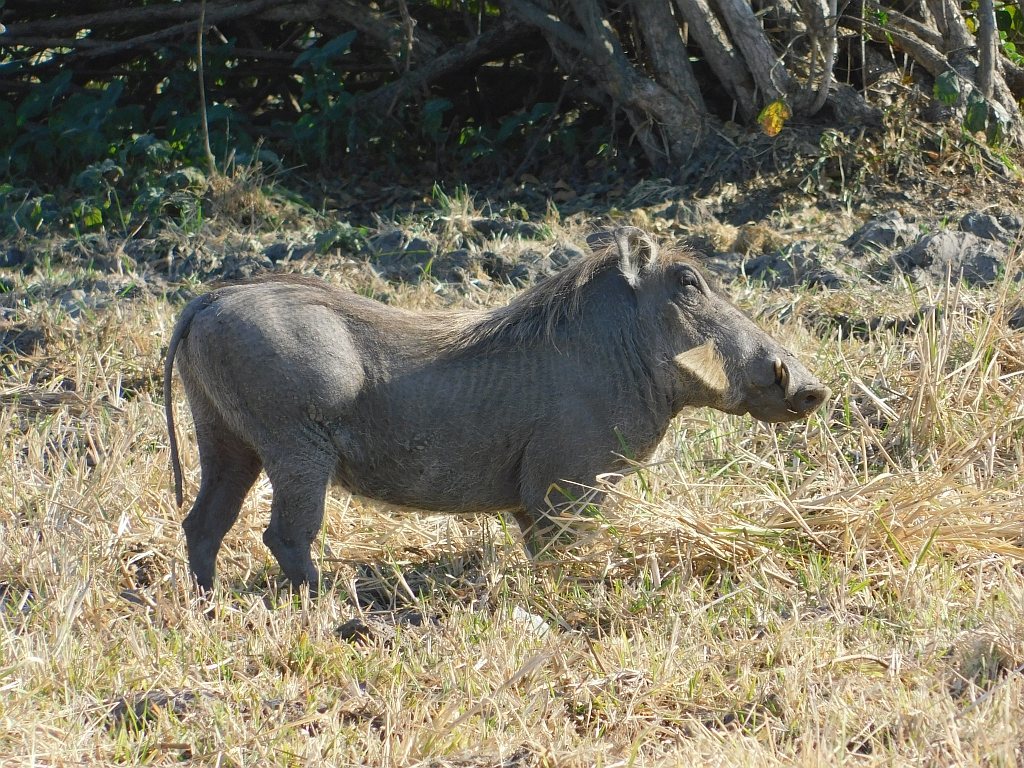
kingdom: Animalia
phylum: Chordata
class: Mammalia
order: Artiodactyla
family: Suidae
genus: Phacochoerus
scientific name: Phacochoerus africanus
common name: Common warthog
